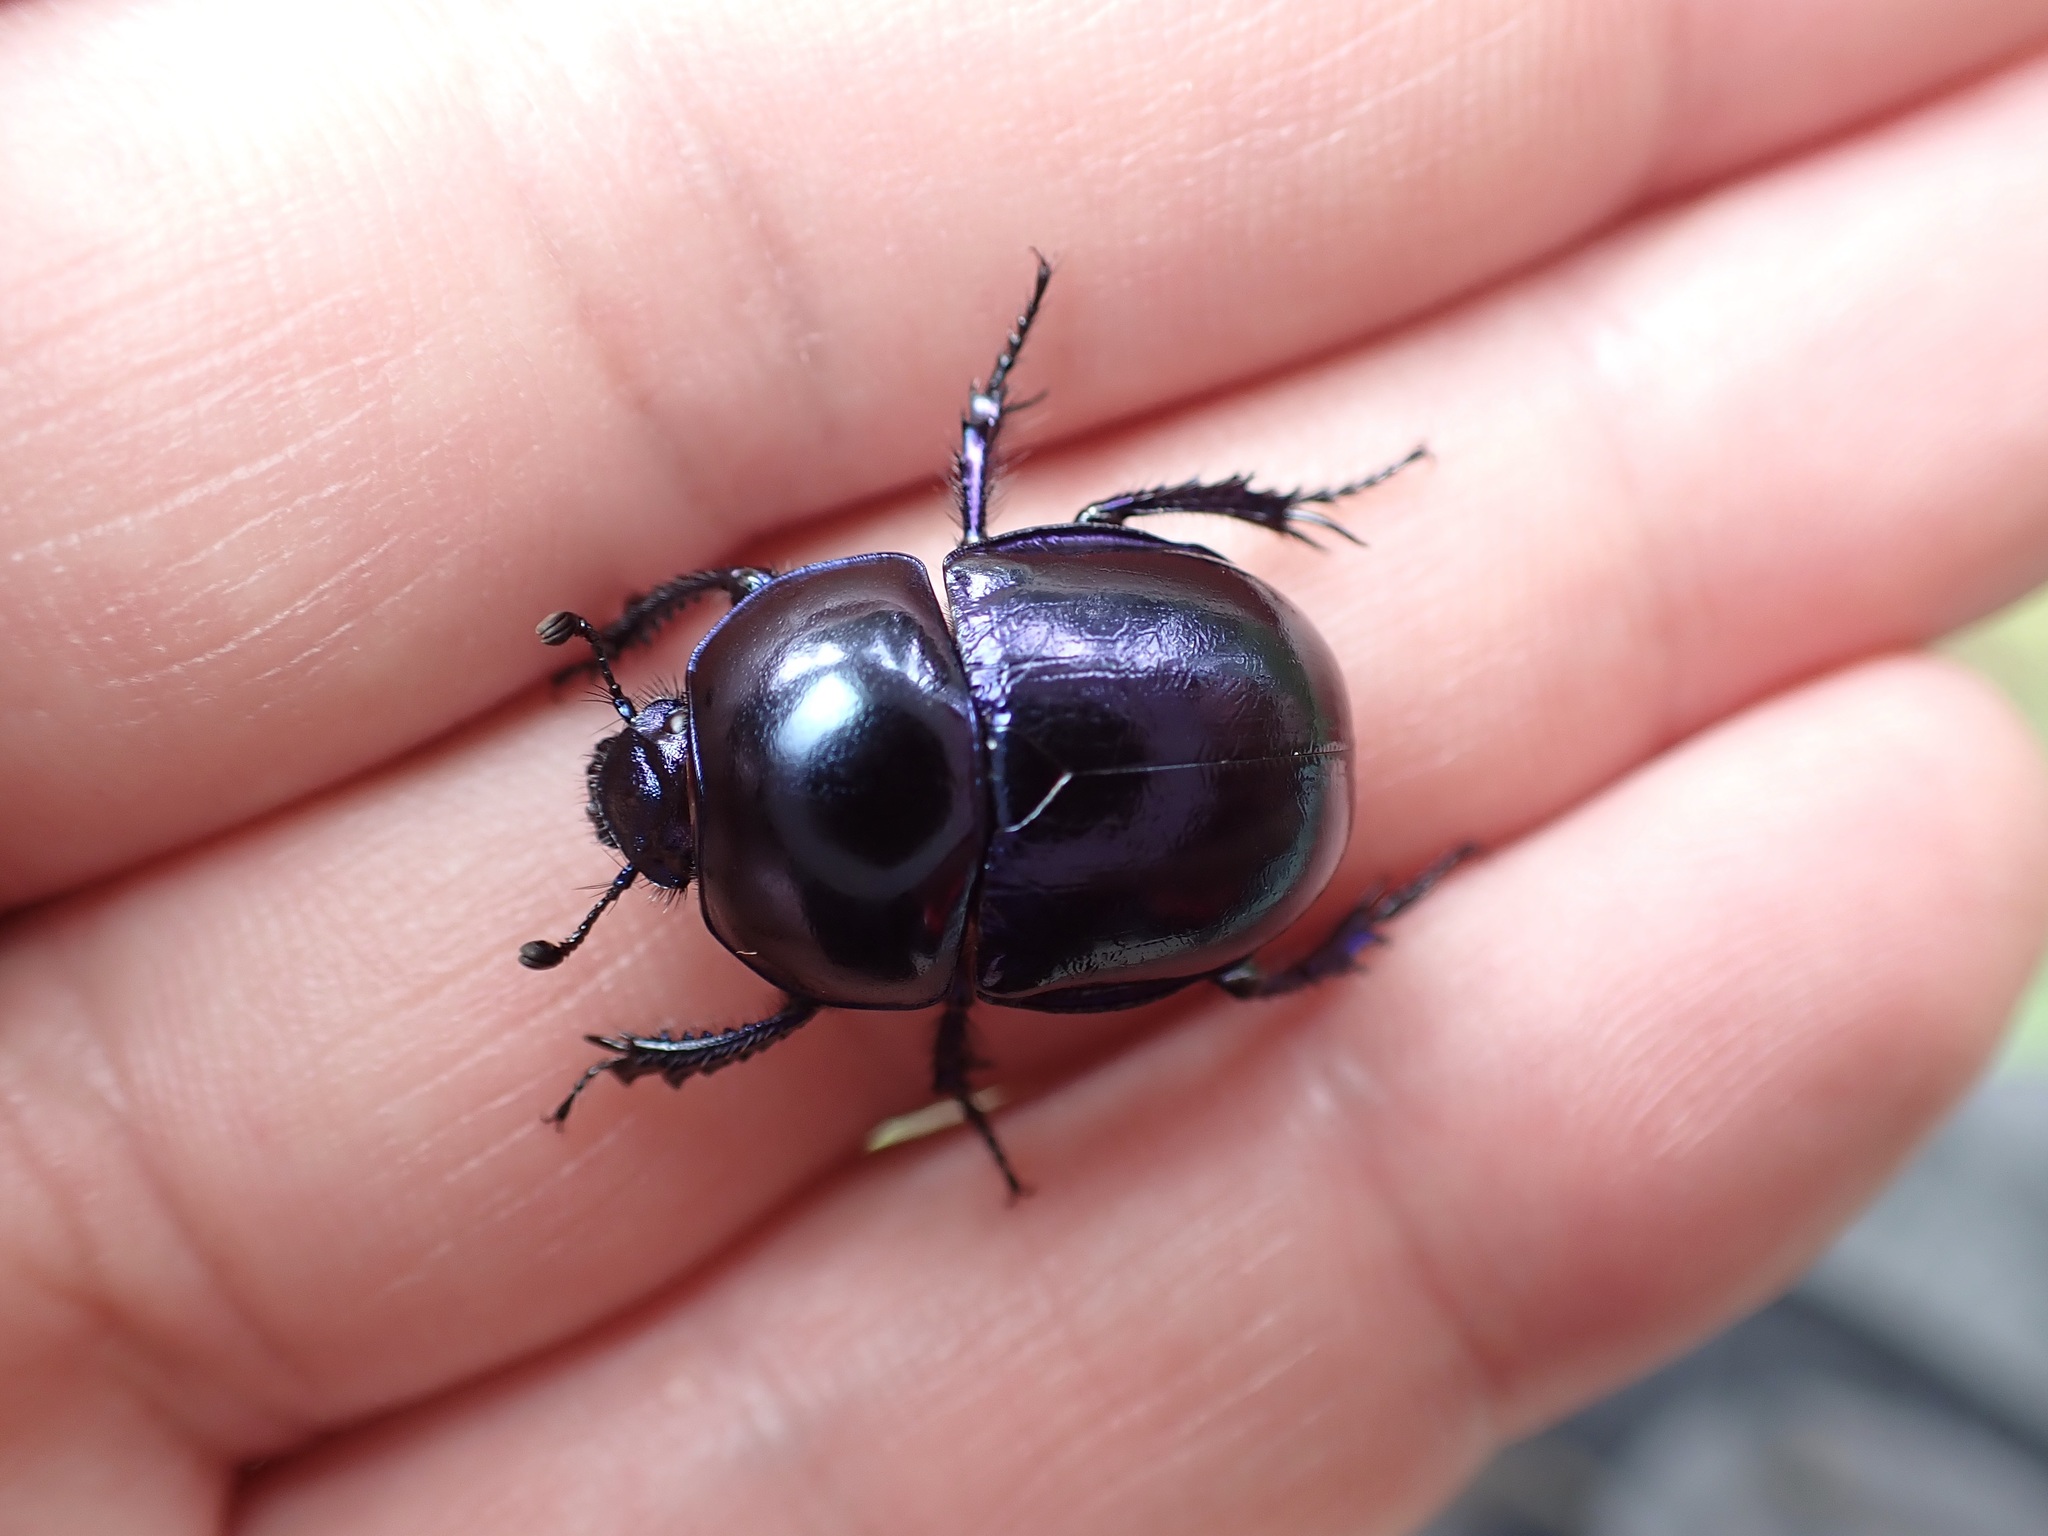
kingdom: Animalia
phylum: Arthropoda
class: Insecta
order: Coleoptera
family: Geotrupidae
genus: Trypocopris
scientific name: Trypocopris vernalis
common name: Spring dumbledor
